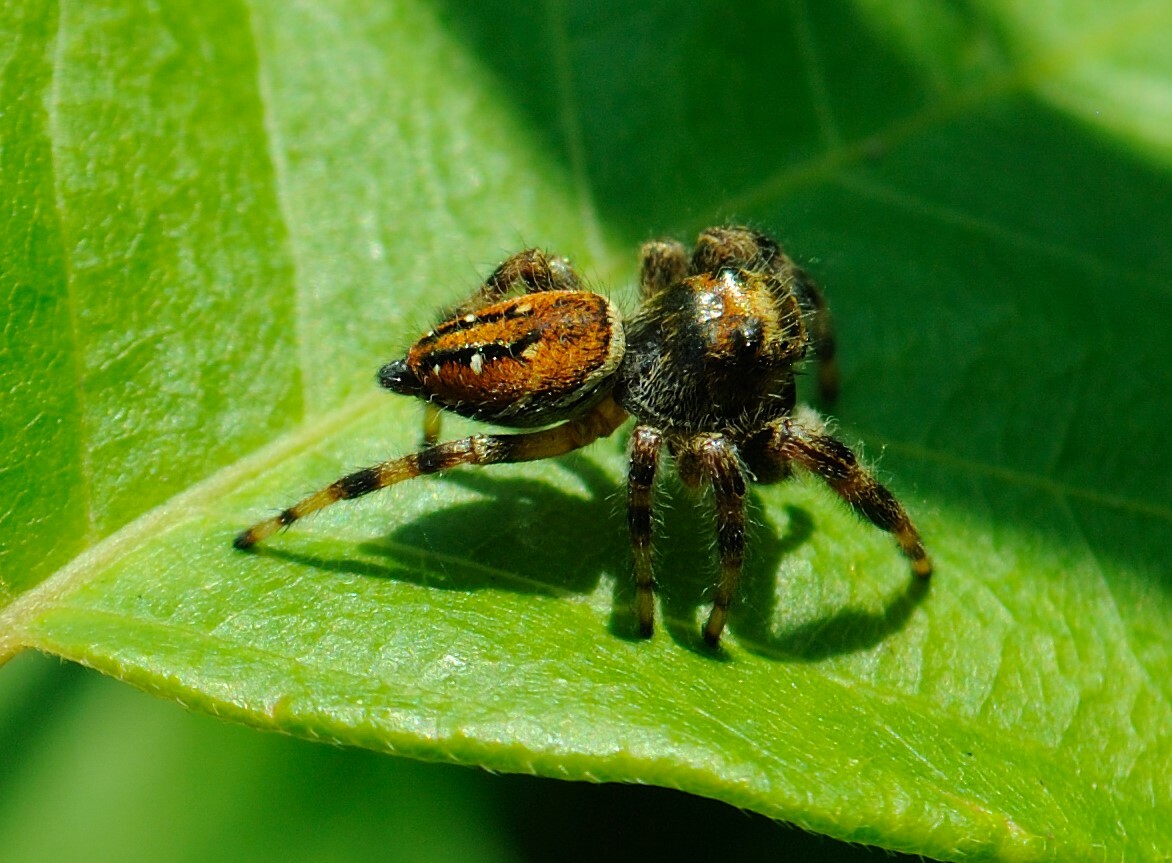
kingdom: Animalia
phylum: Arthropoda
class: Arachnida
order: Araneae
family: Salticidae
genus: Phidippus
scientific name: Phidippus clarus
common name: Brilliant jumping spider
